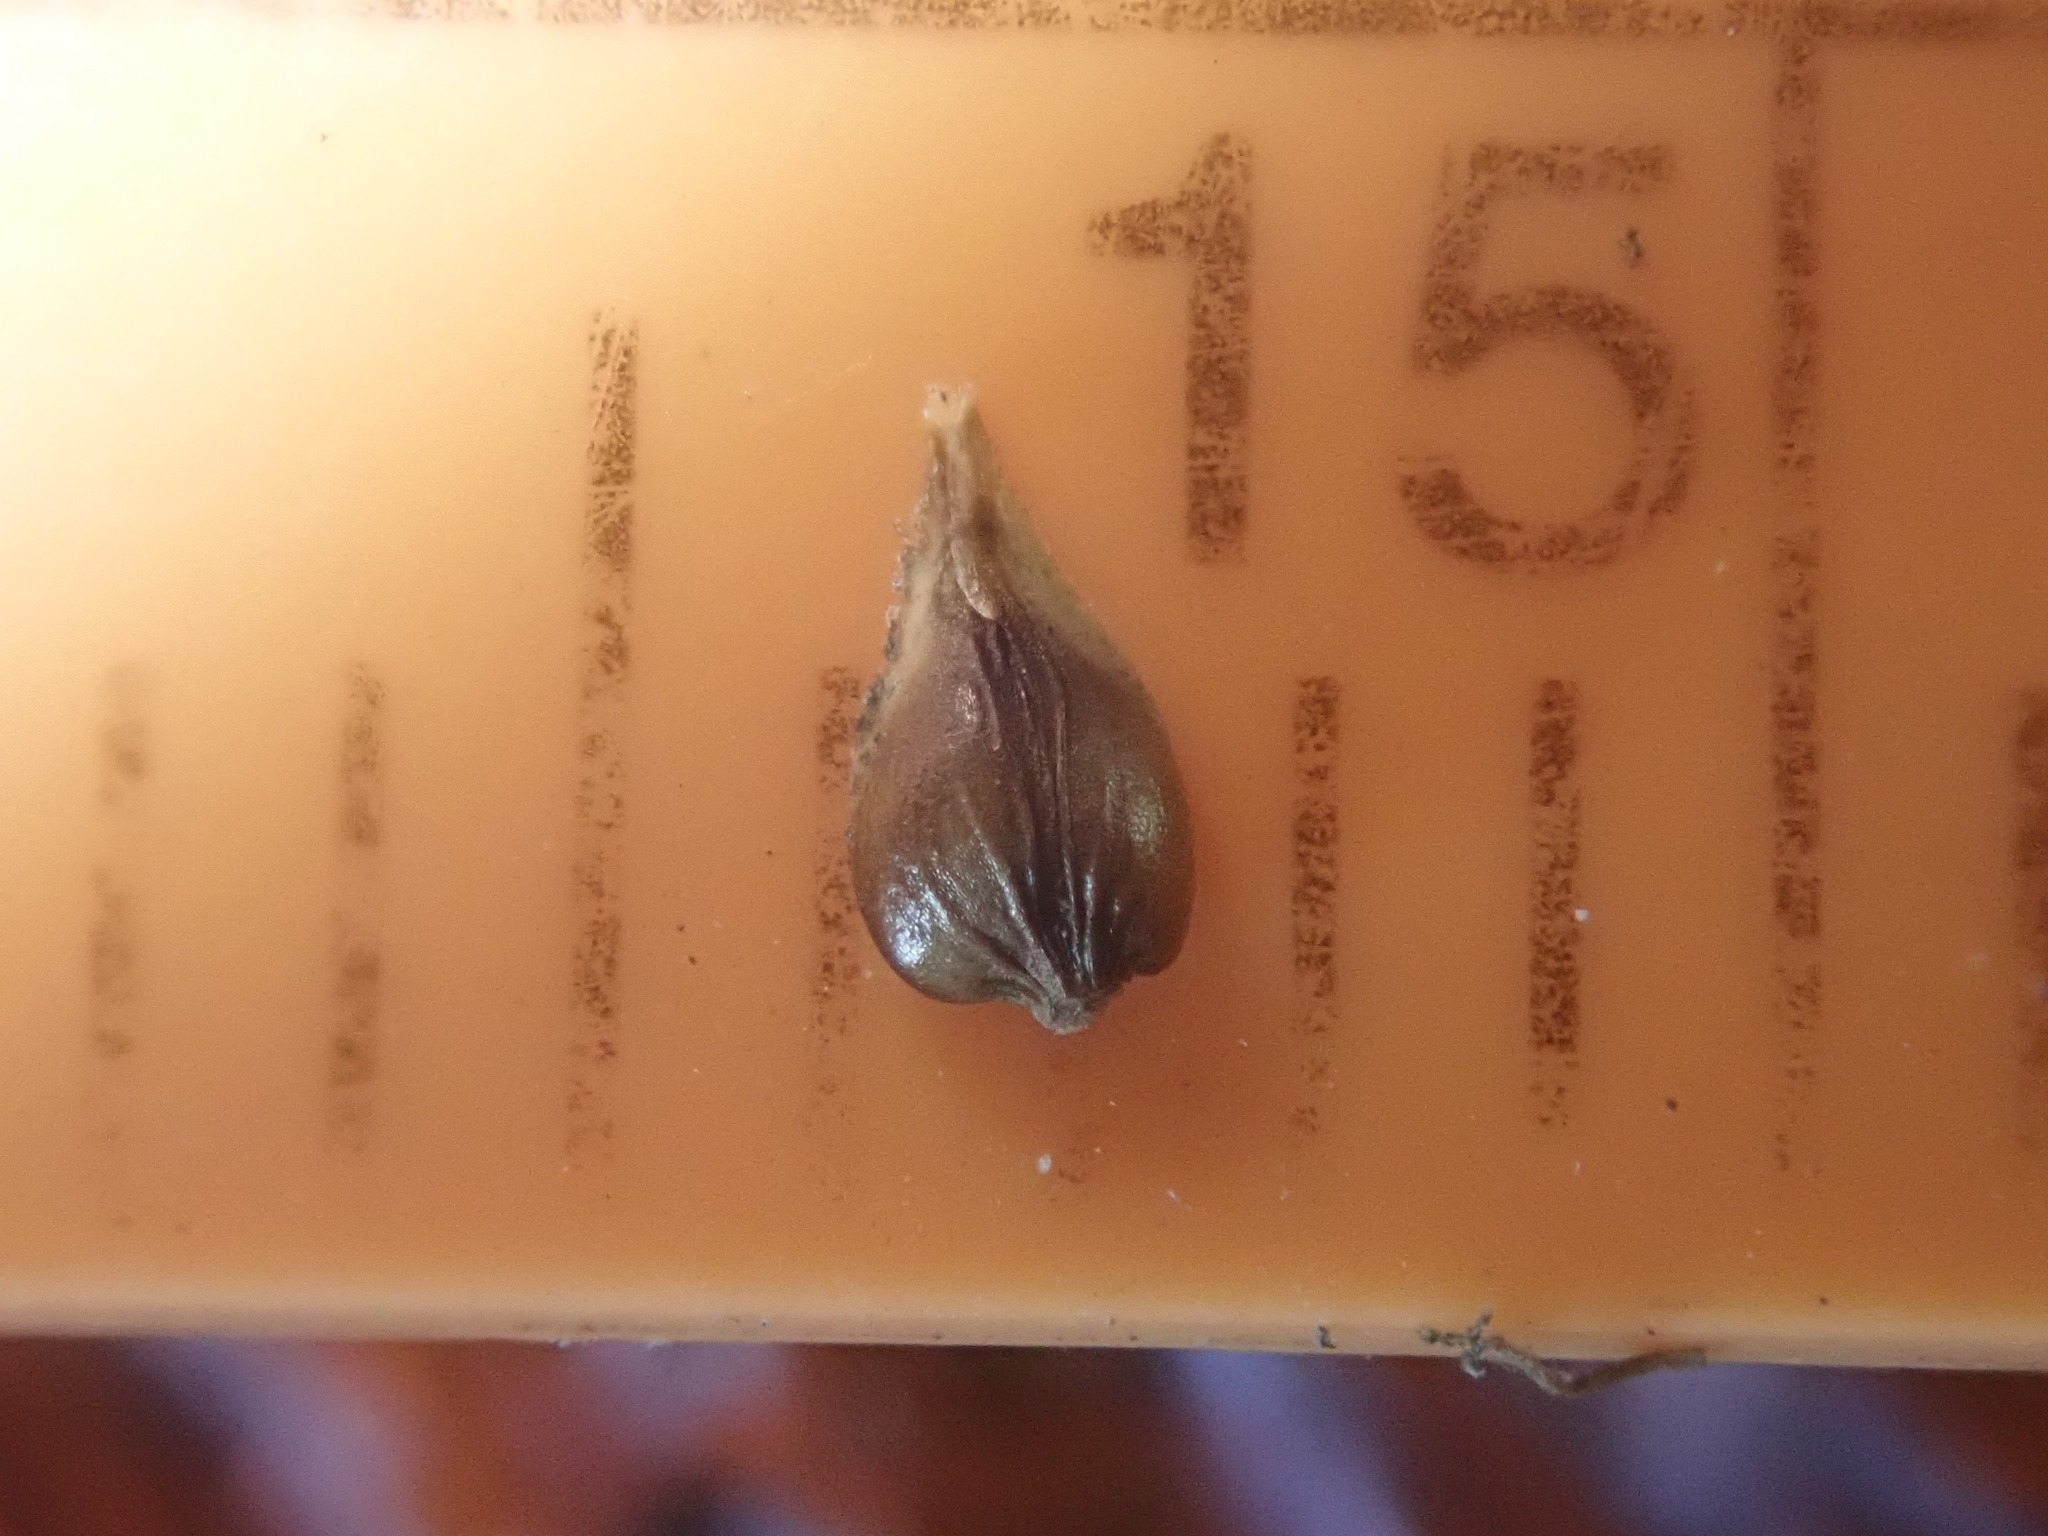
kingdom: Plantae
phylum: Tracheophyta
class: Liliopsida
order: Poales
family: Cyperaceae
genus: Carex
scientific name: Carex cusickii
